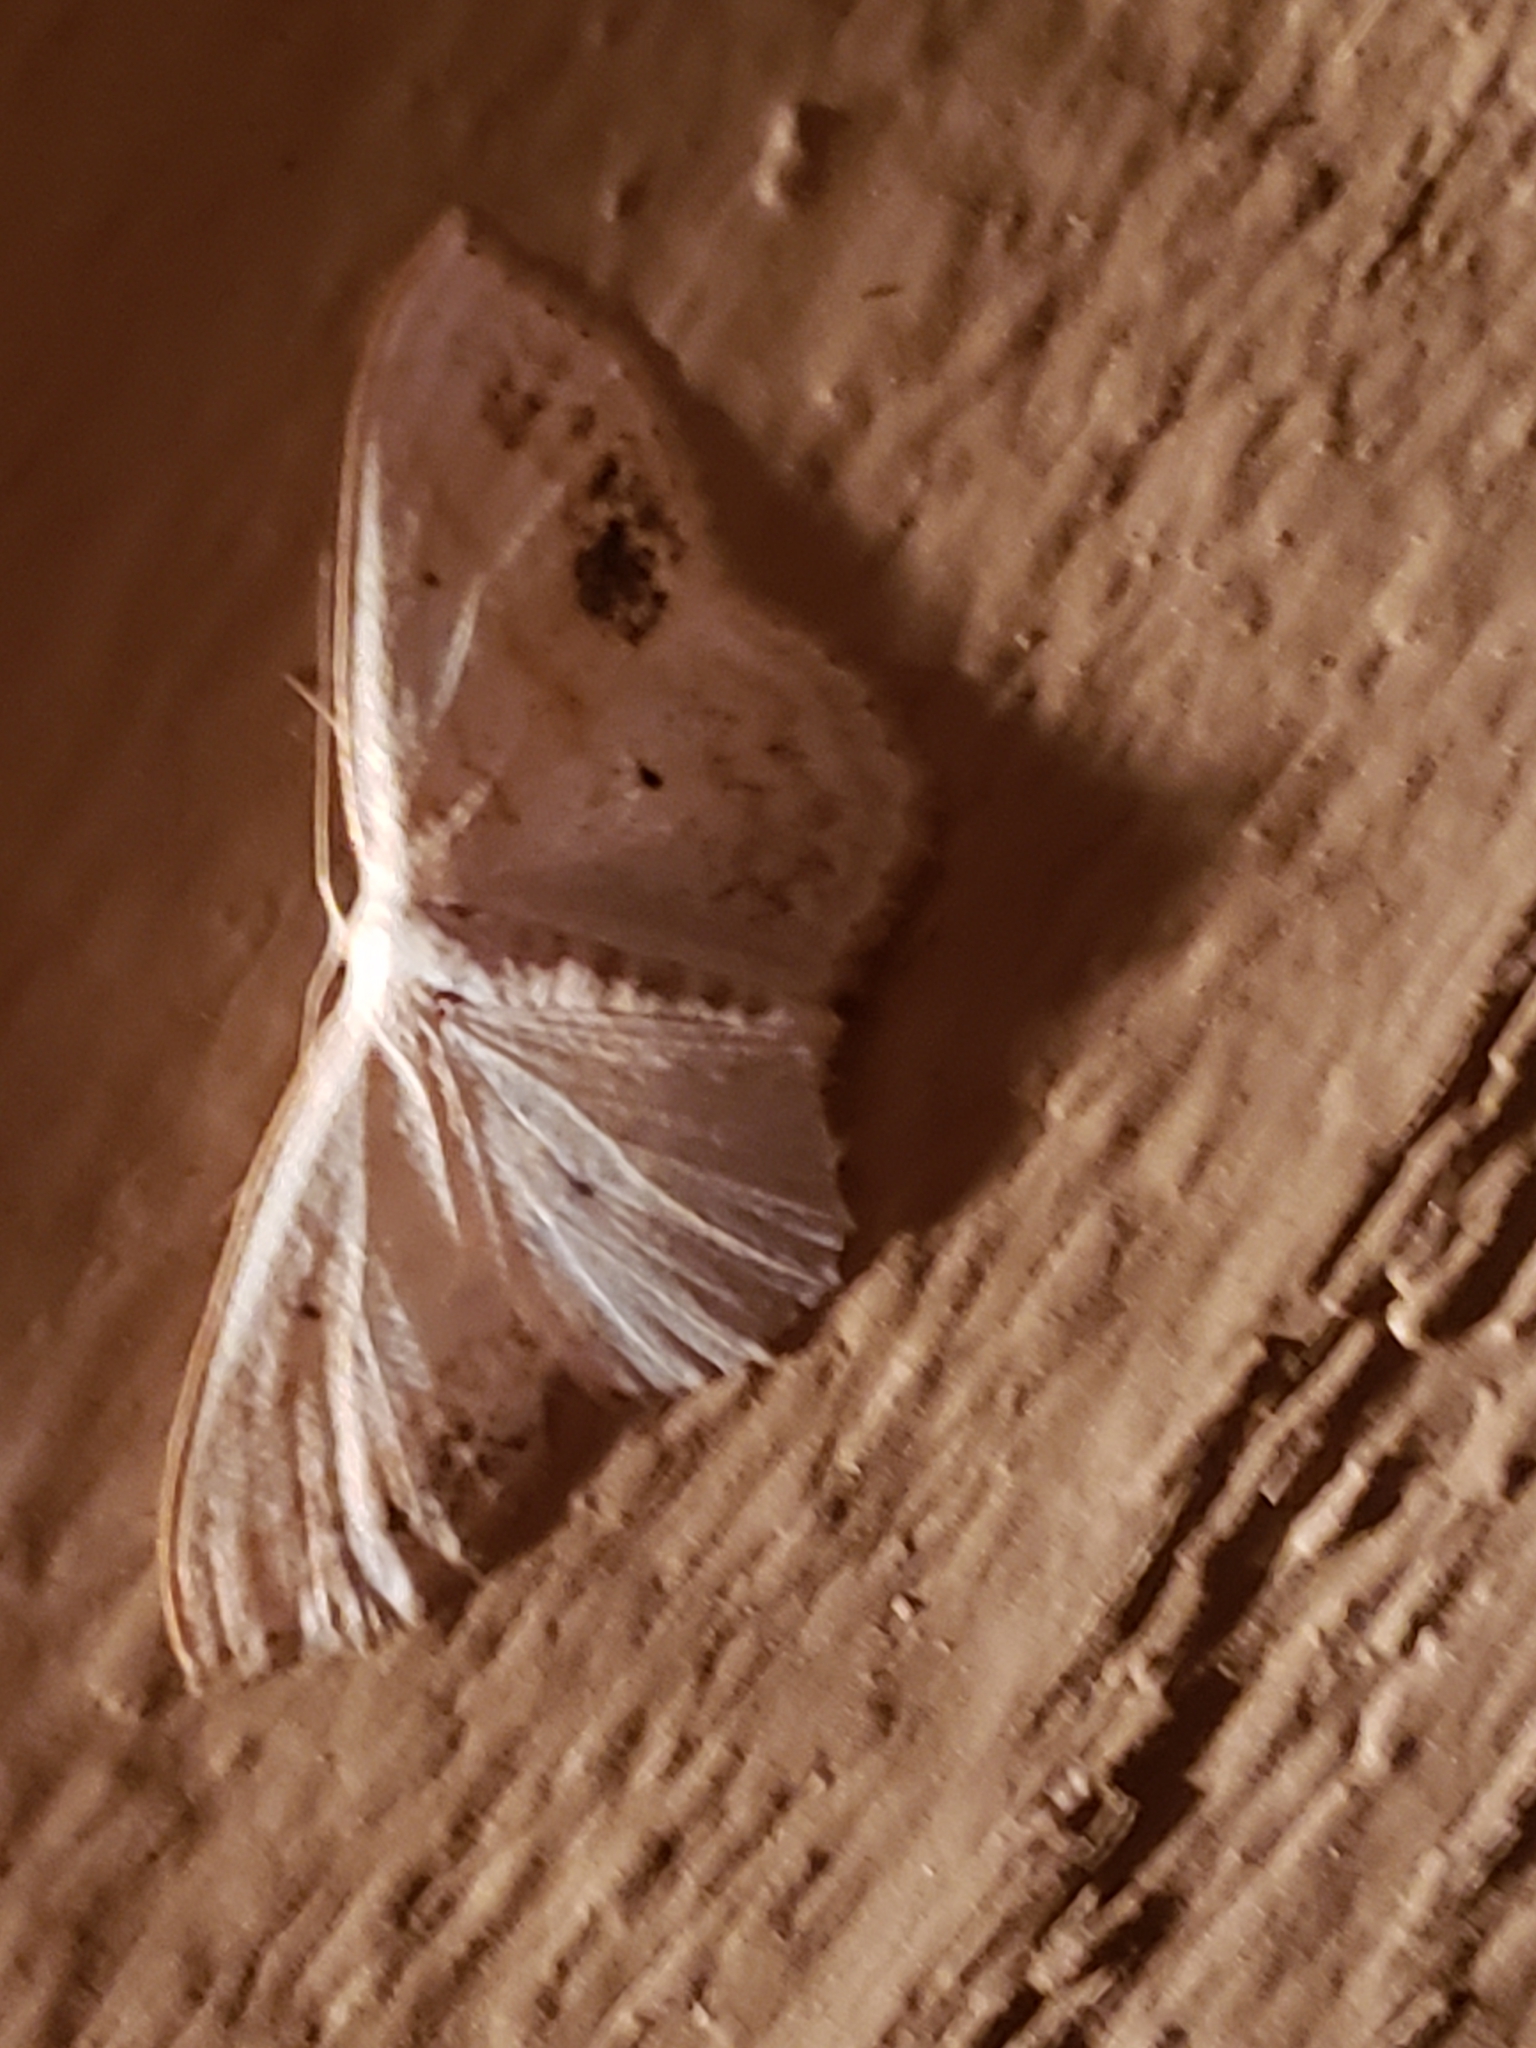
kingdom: Animalia
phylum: Arthropoda
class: Insecta
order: Lepidoptera
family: Geometridae
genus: Scopula
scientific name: Scopula limboundata
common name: Large lace border
